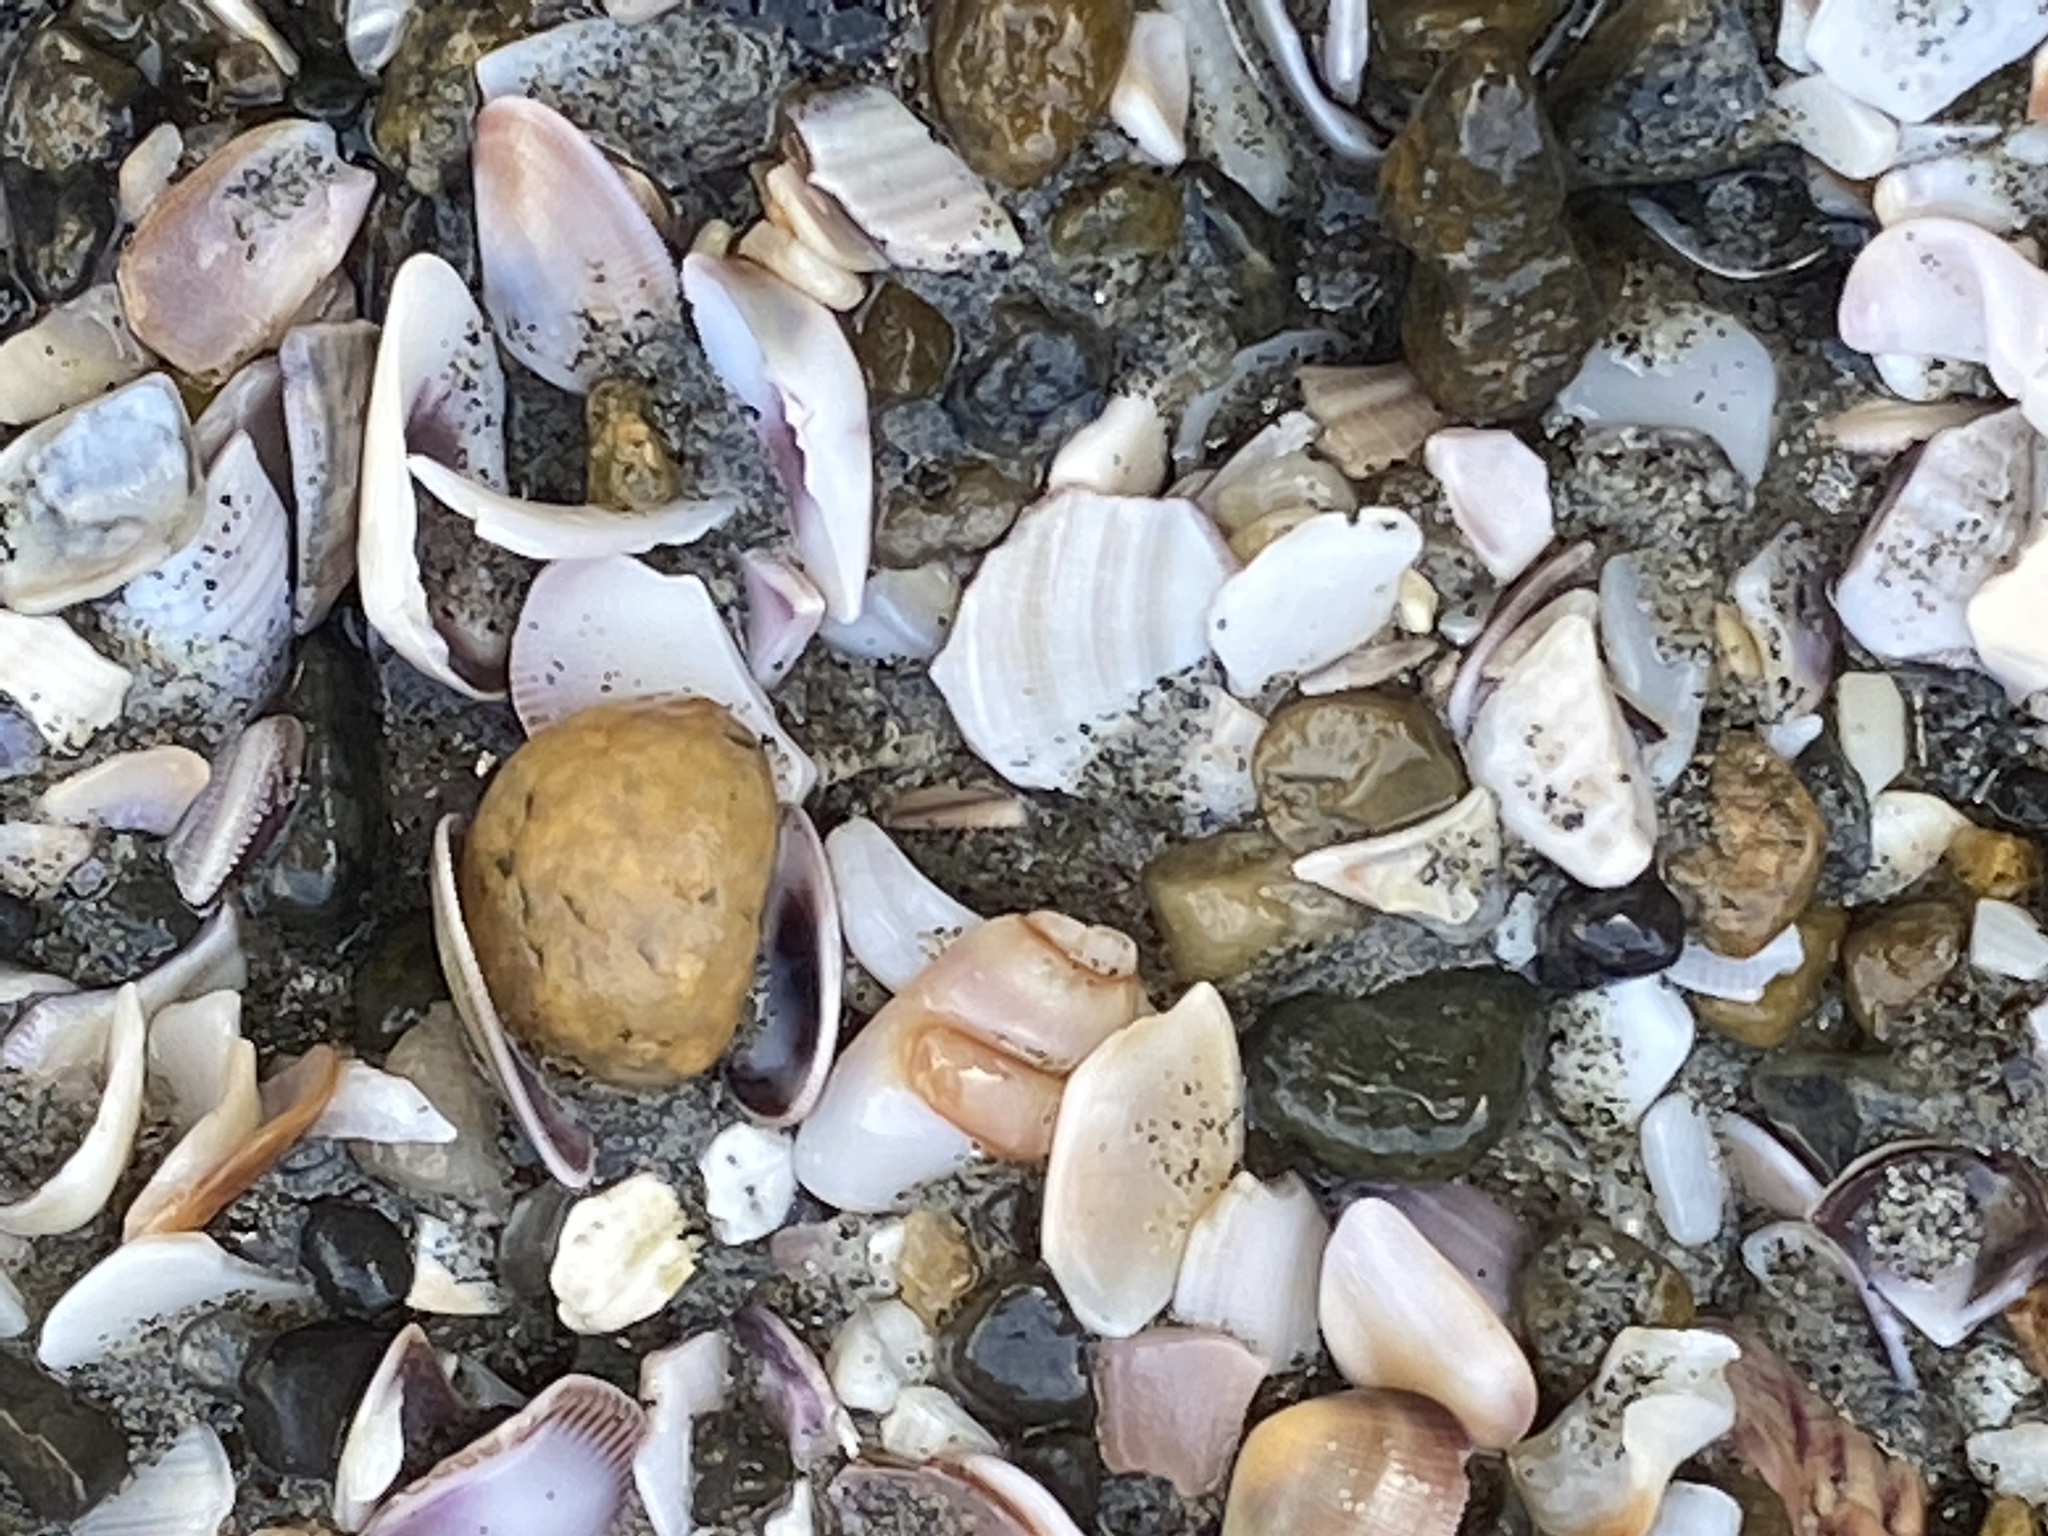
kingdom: Animalia
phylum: Cnidaria
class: Anthozoa
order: Actiniaria
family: Actiniidae
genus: Anthopleura
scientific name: Anthopleura elegantissima
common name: Clonal anemone
